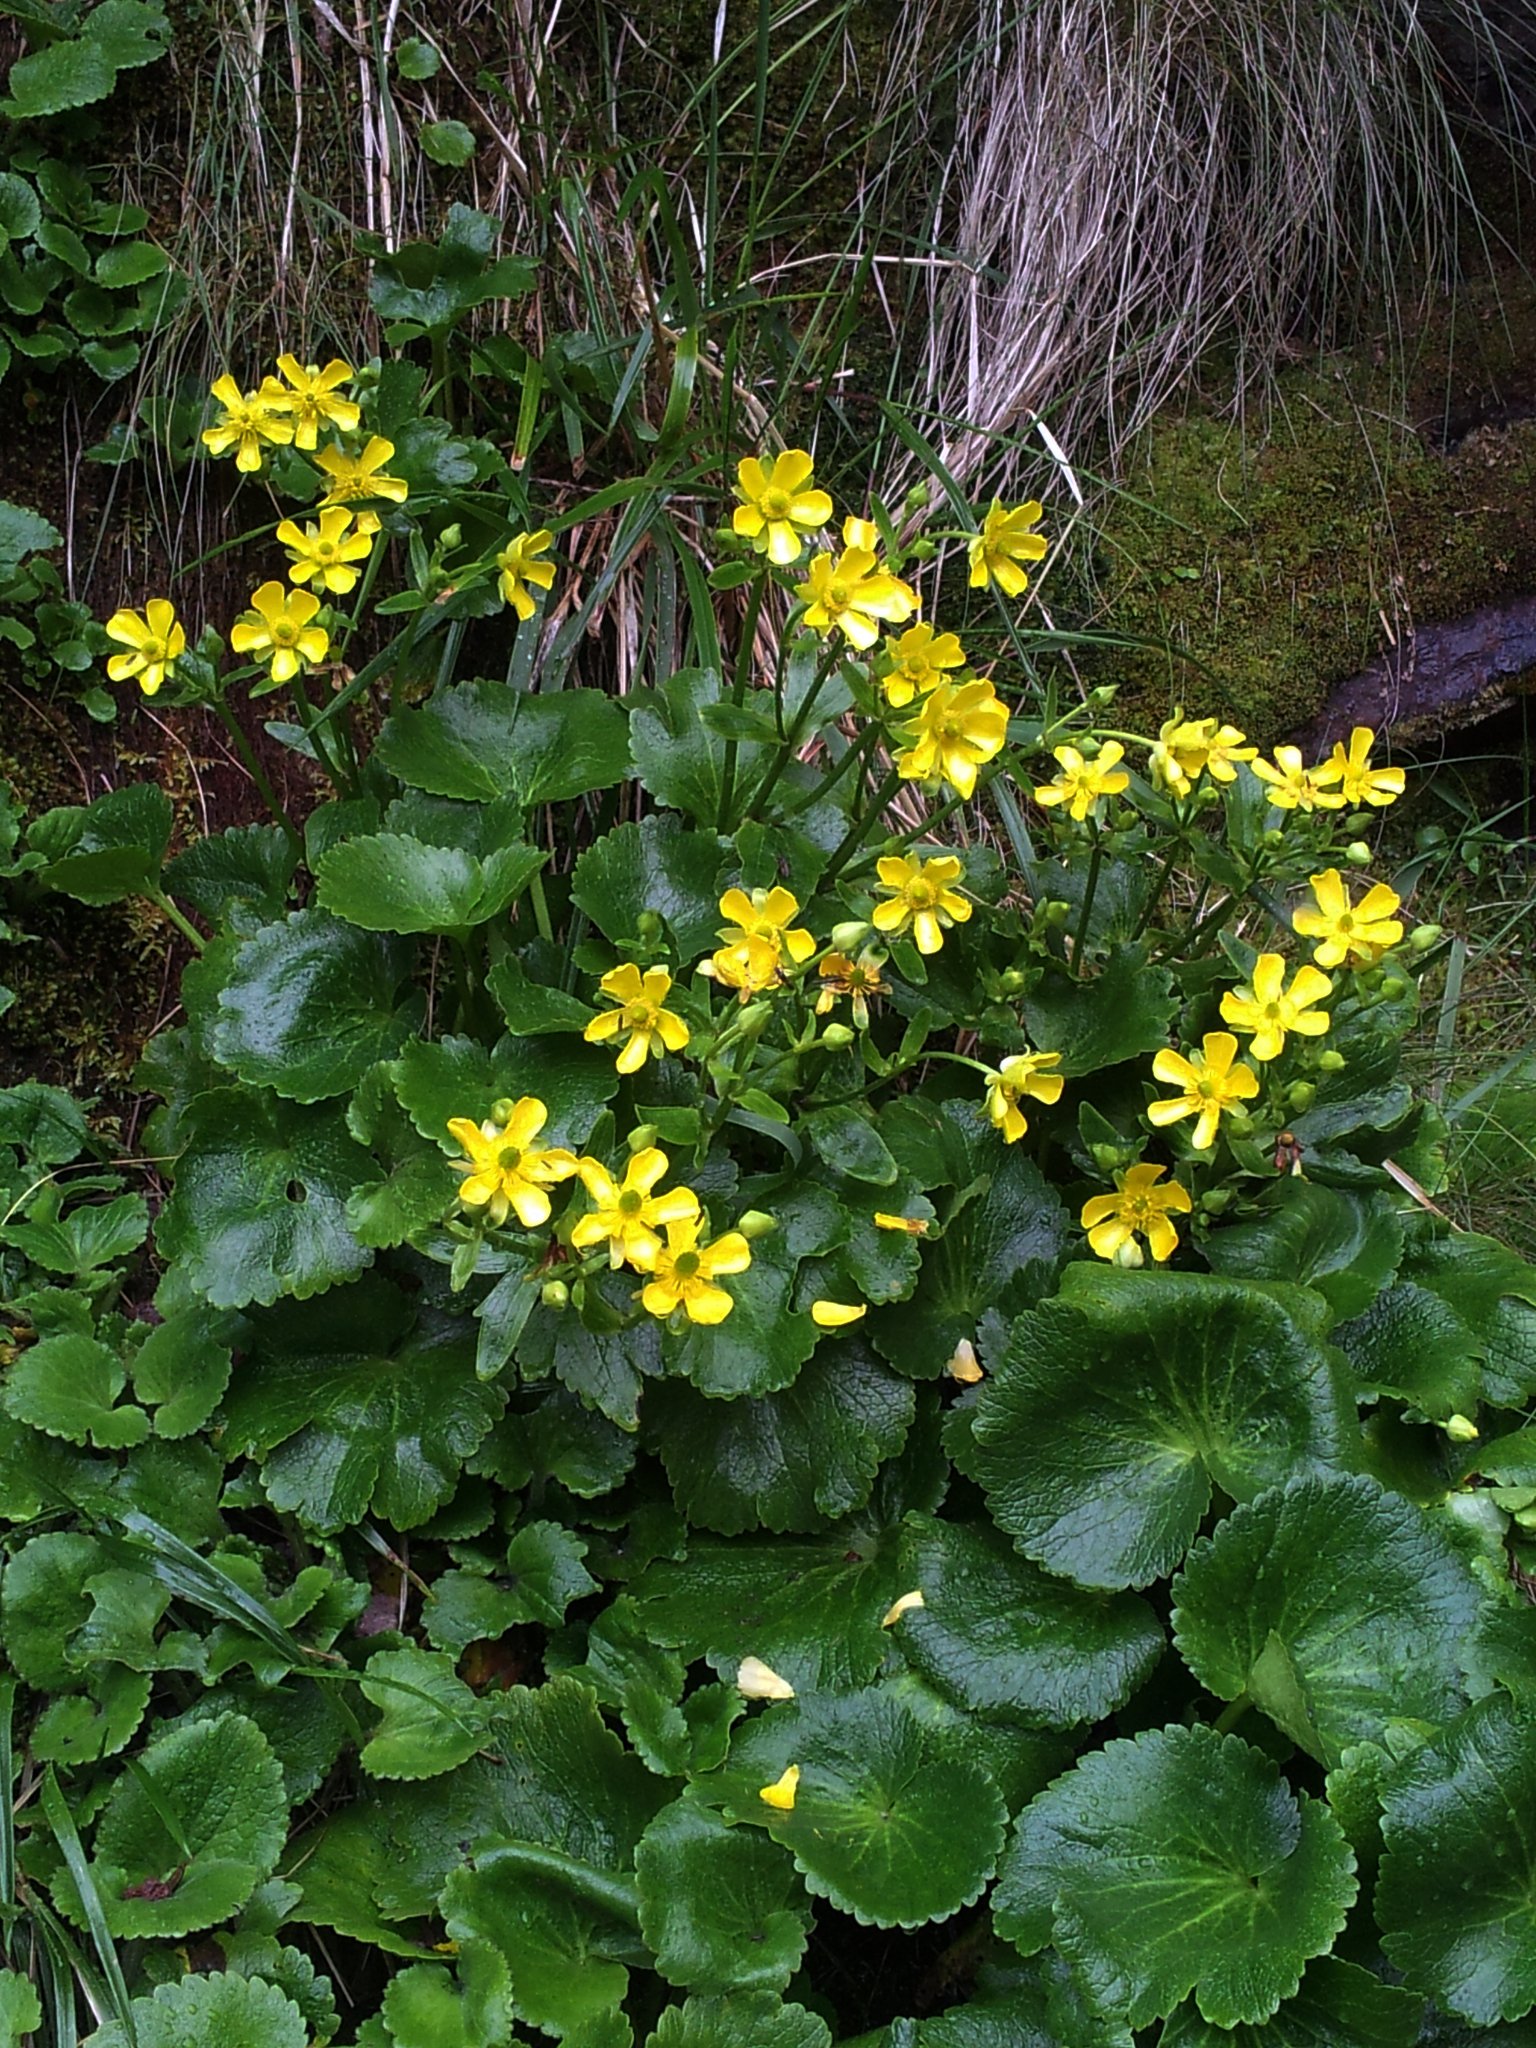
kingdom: Plantae
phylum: Tracheophyta
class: Magnoliopsida
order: Ranunculales
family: Ranunculaceae
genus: Ranunculus
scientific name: Ranunculus insignis
